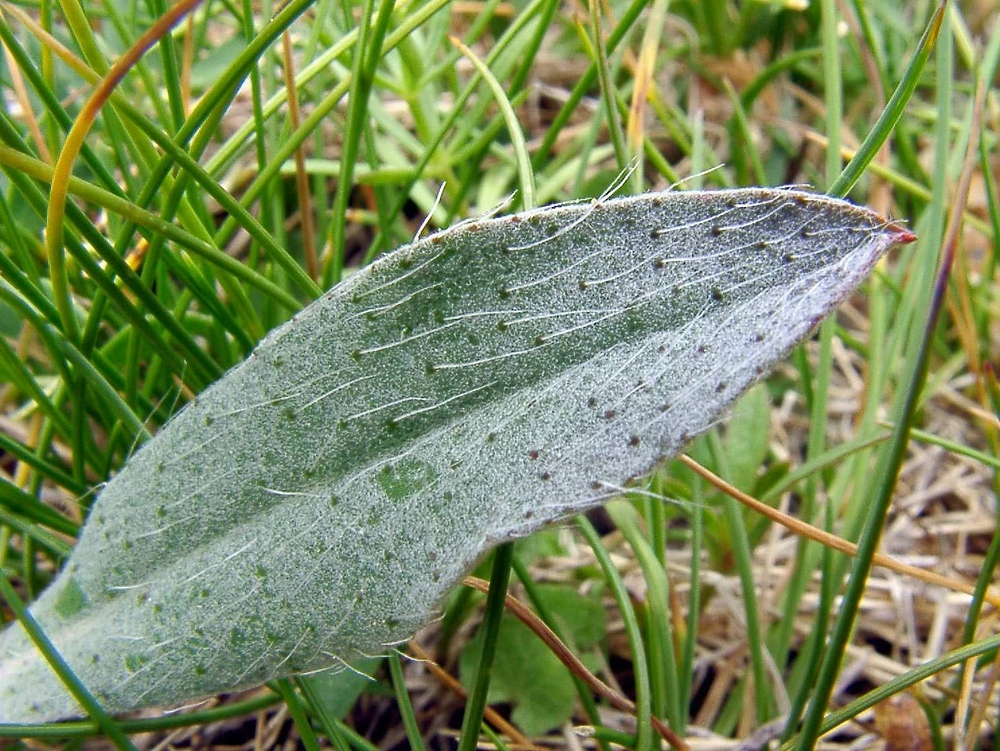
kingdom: Plantae
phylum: Tracheophyta
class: Magnoliopsida
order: Asterales
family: Asteraceae
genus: Pilosella
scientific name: Pilosella officinarum
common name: Mouse-ear hawkweed
